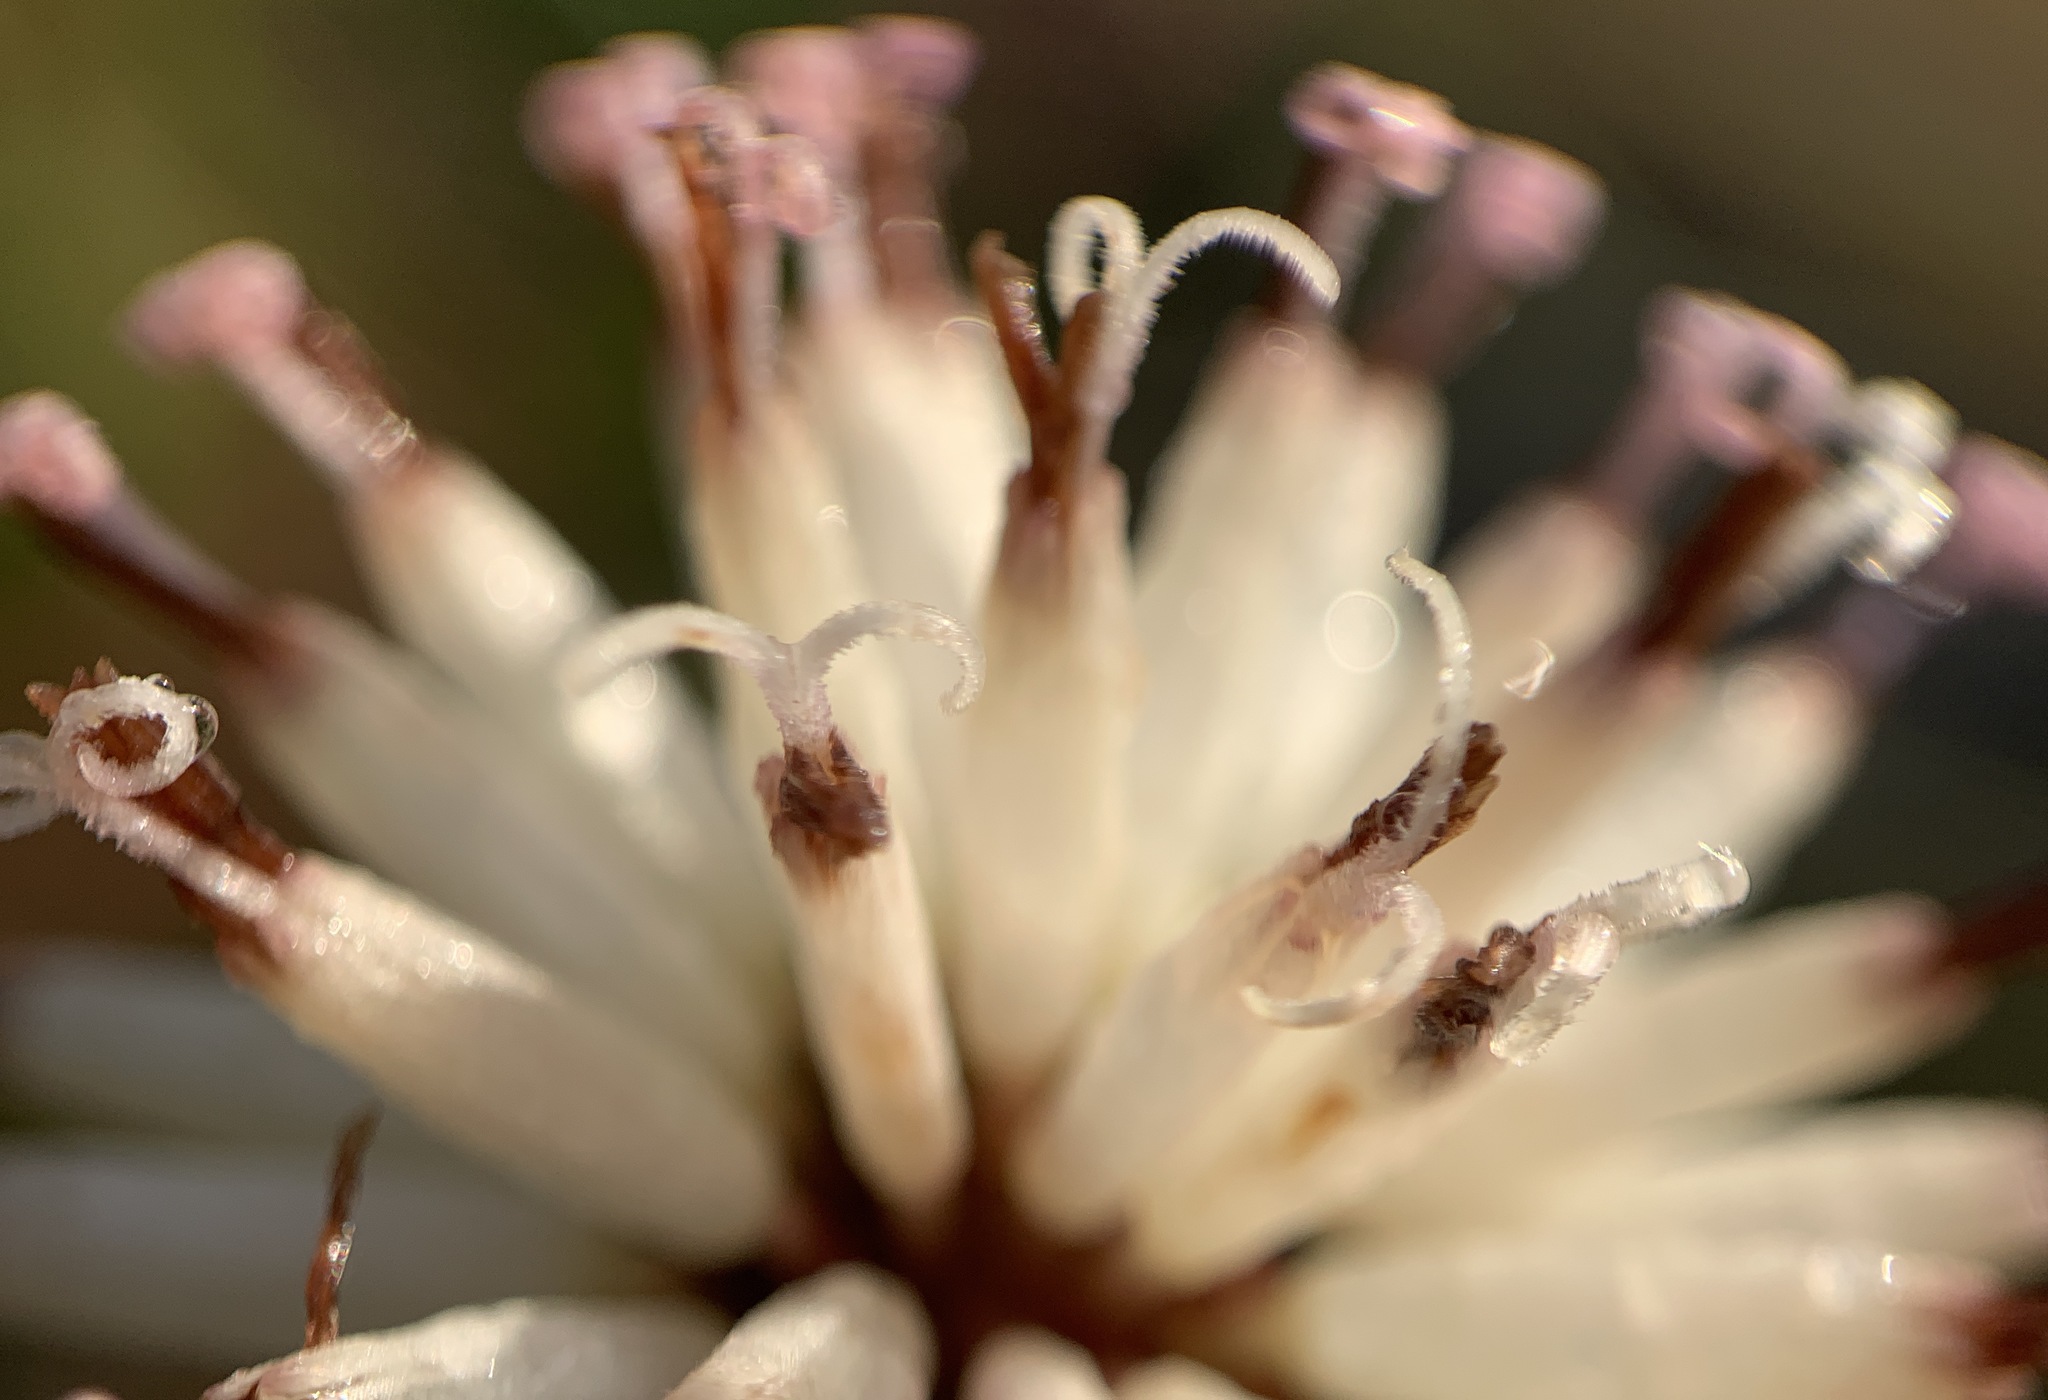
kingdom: Plantae
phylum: Tracheophyta
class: Magnoliopsida
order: Asterales
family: Asteraceae
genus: Palafoxia
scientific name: Palafoxia feayi
